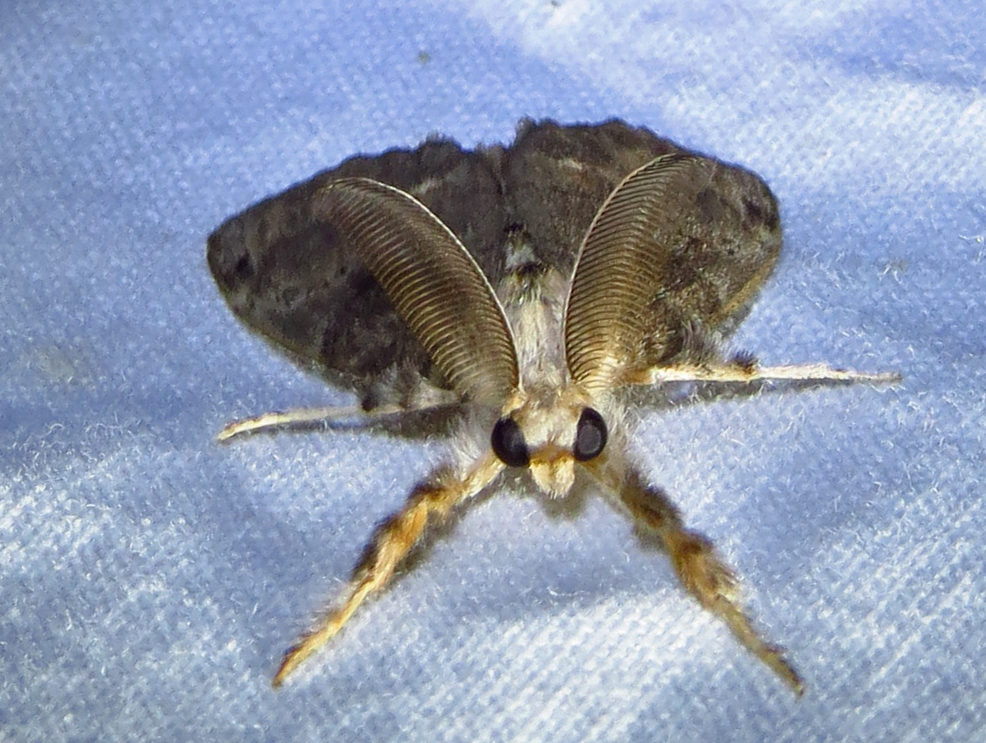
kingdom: Animalia
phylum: Arthropoda
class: Insecta
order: Lepidoptera
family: Erebidae
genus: Orgyia
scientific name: Orgyia leucostigma
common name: White-marked tussock moth
